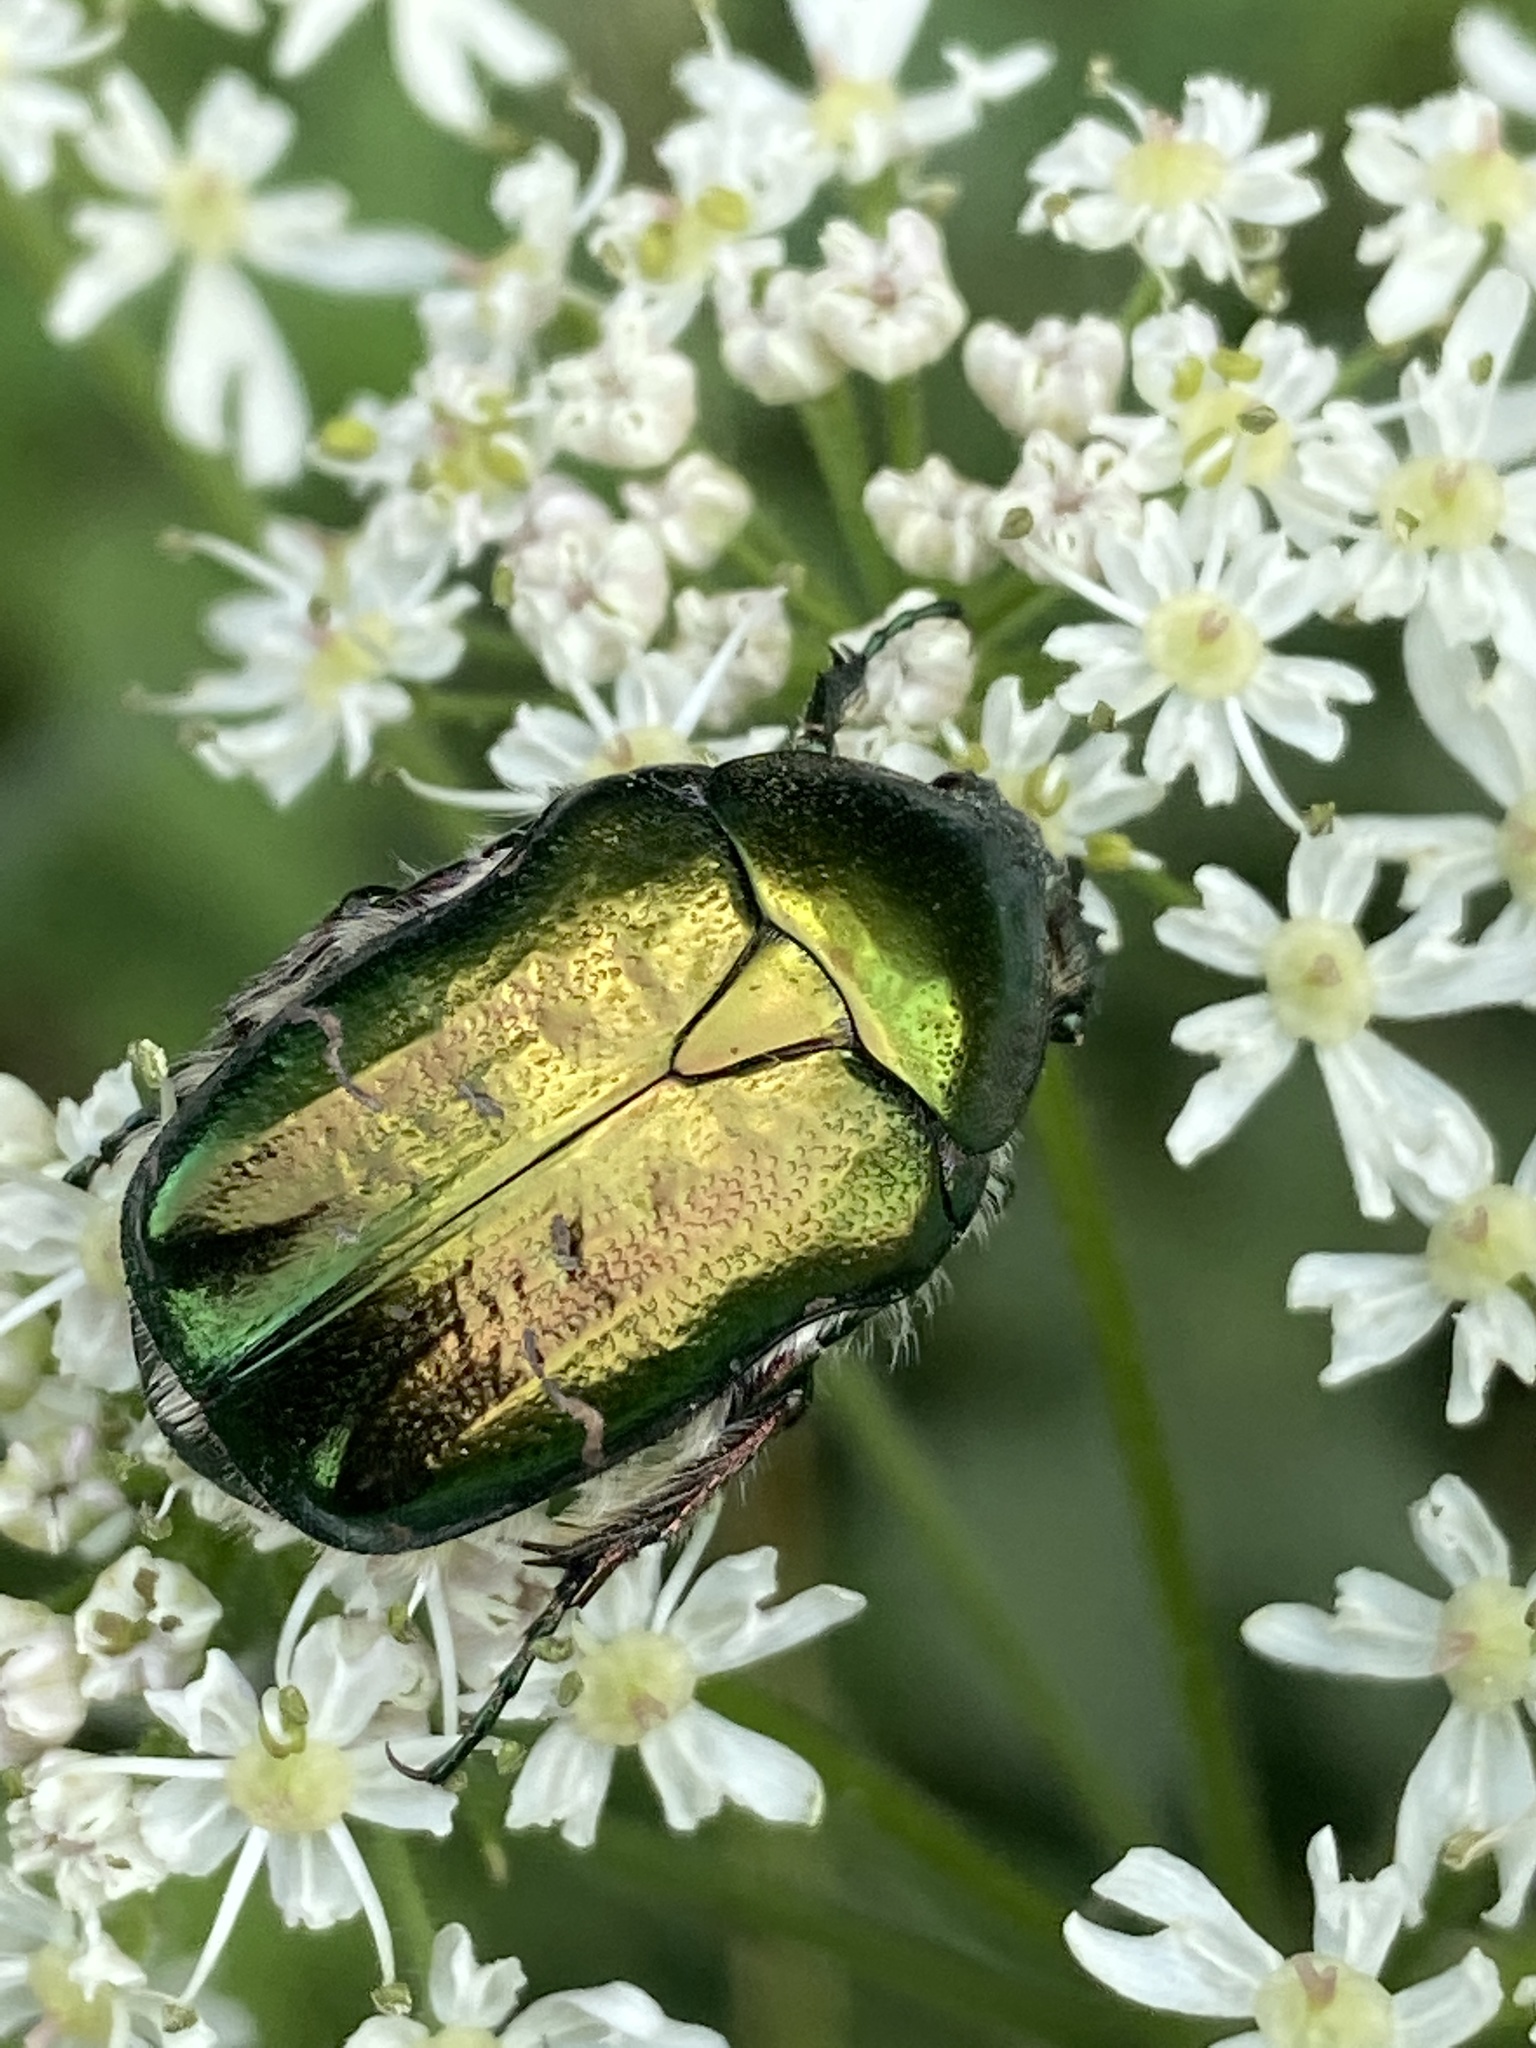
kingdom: Animalia
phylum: Arthropoda
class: Insecta
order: Coleoptera
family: Scarabaeidae
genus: Cetonia
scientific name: Cetonia aurata
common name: Rose chafer
